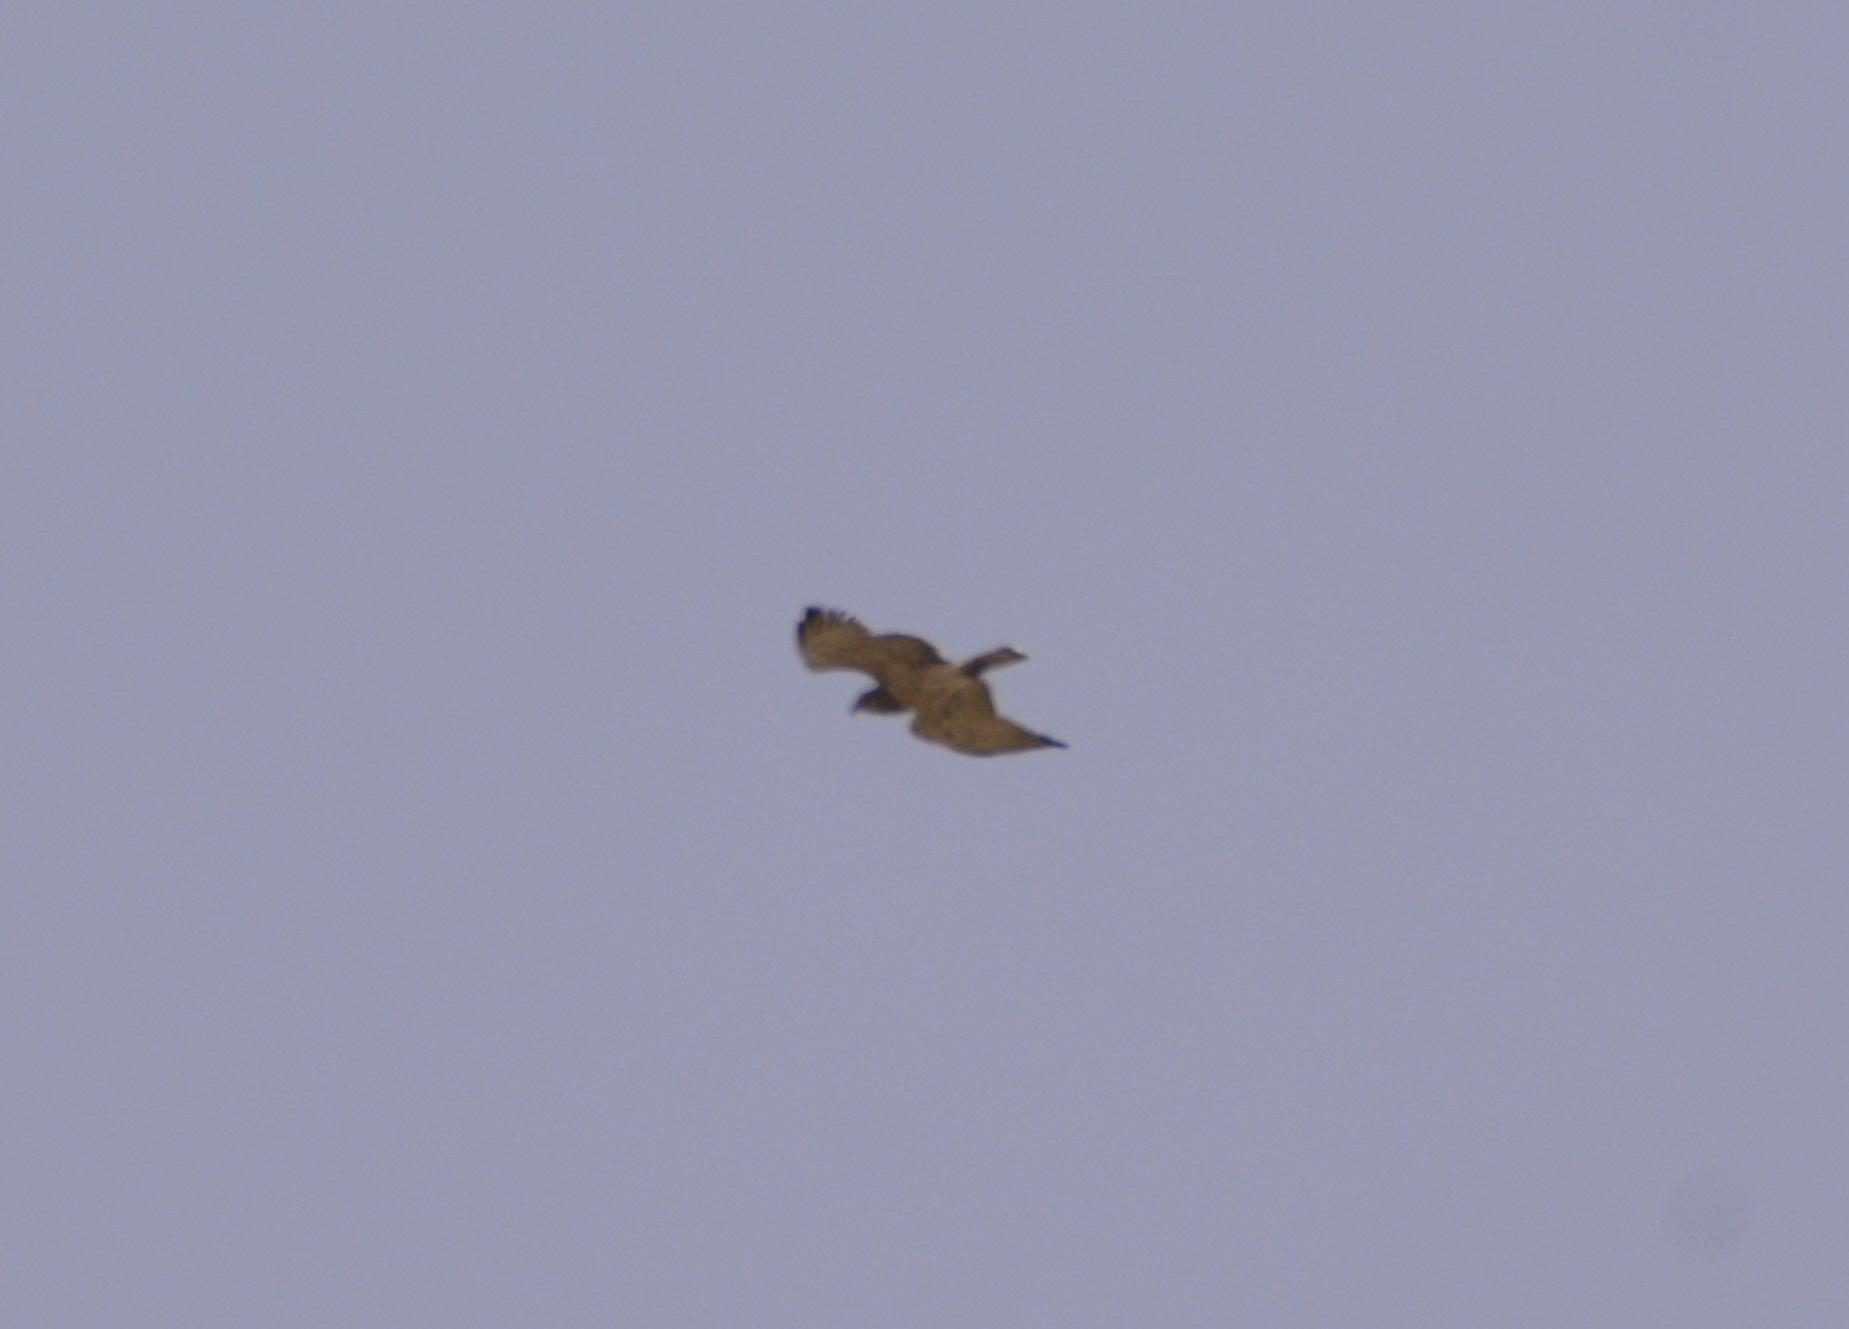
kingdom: Animalia
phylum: Chordata
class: Aves
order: Accipitriformes
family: Accipitridae
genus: Circaetus
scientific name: Circaetus gallicus
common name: Short-toed snake eagle
